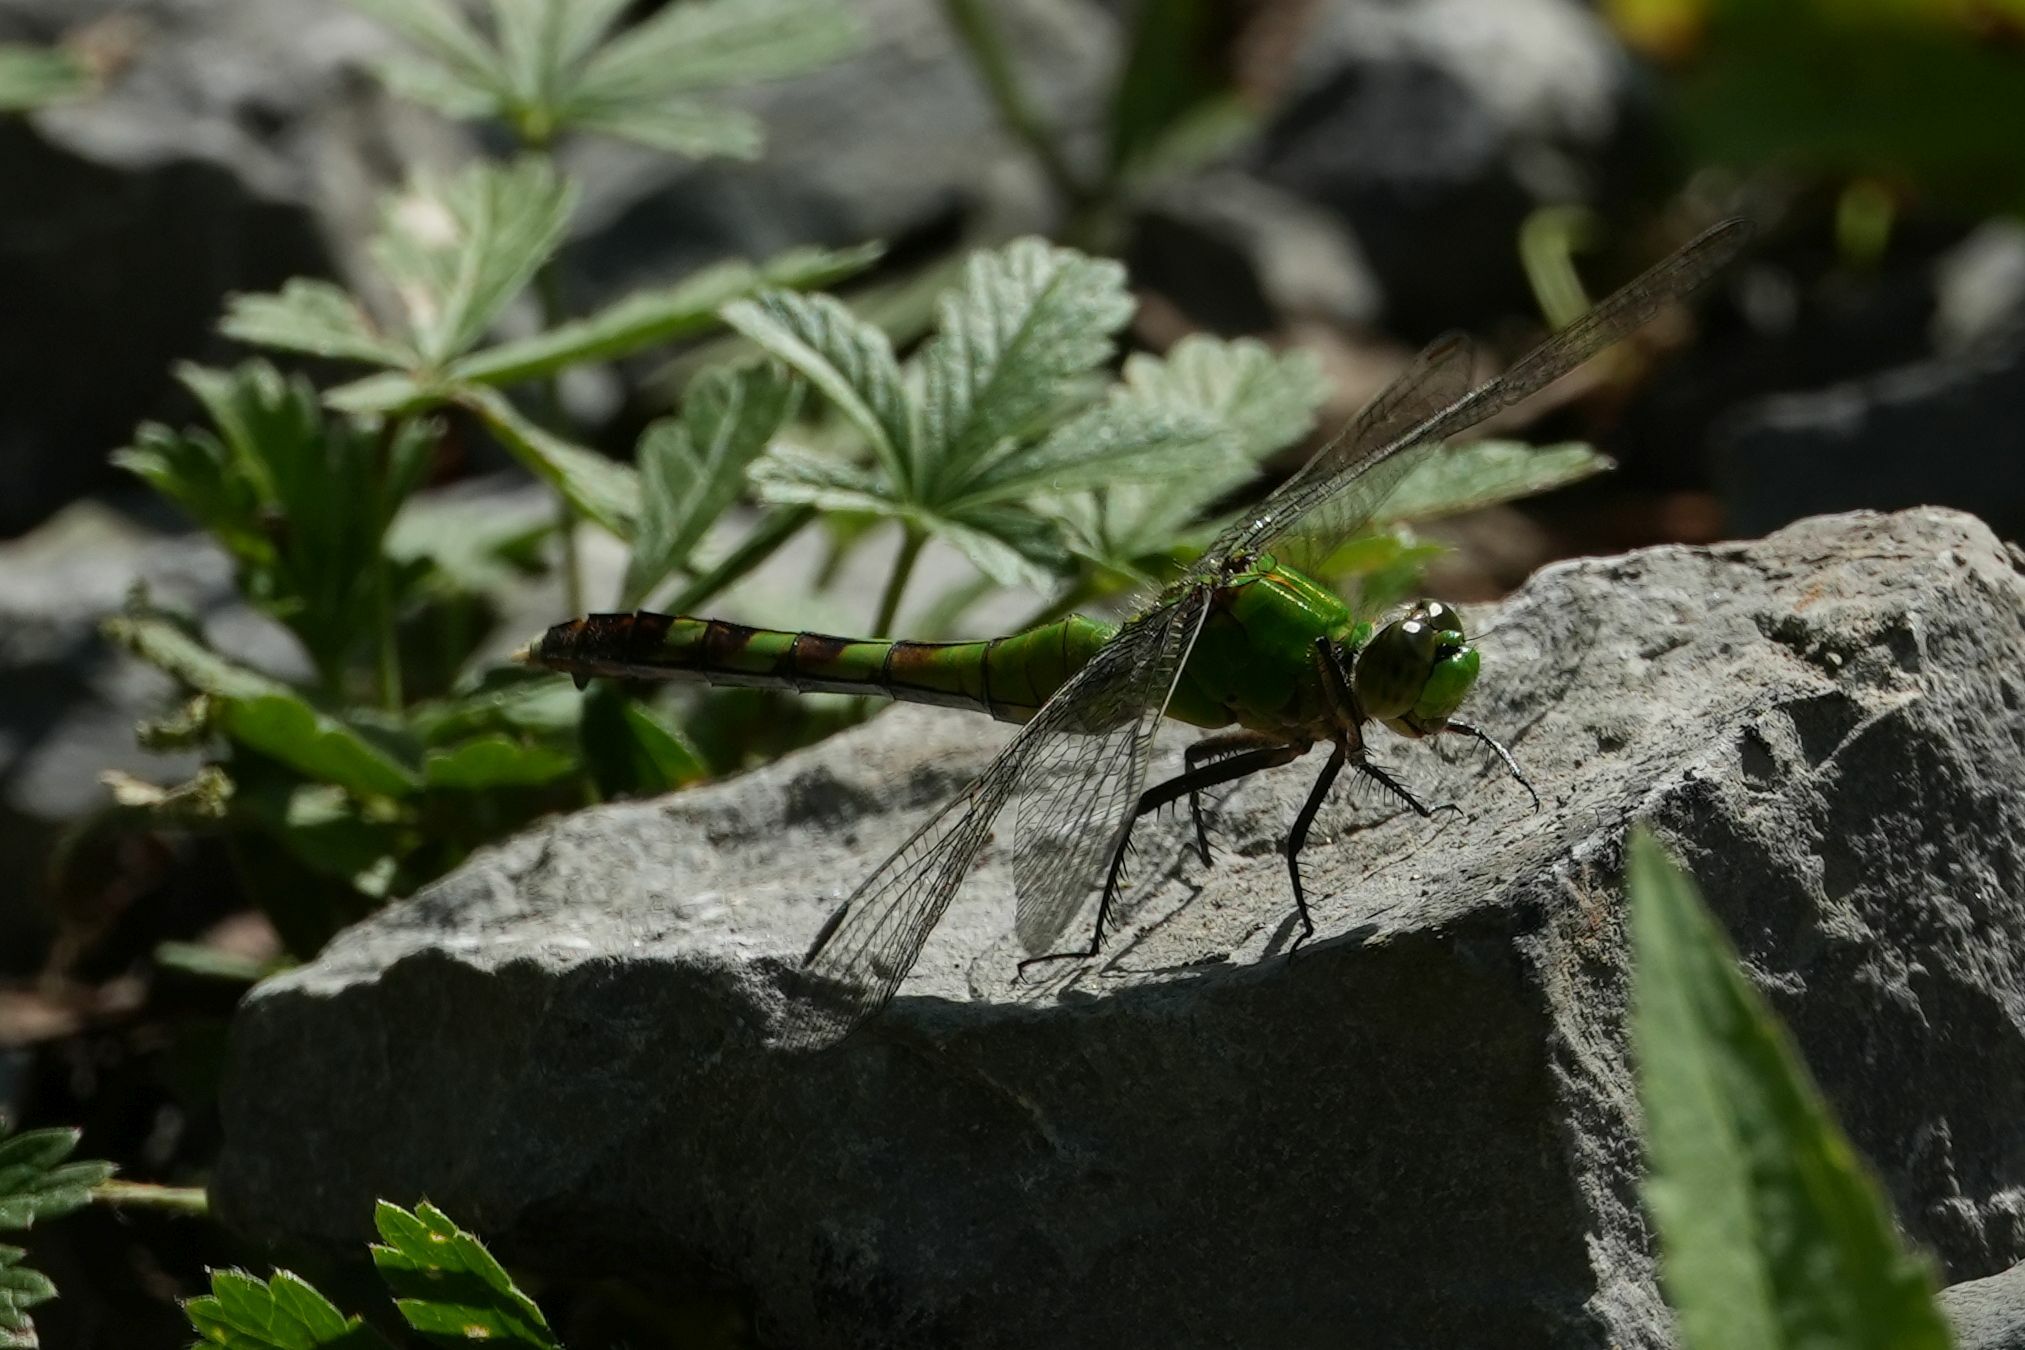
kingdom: Animalia
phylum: Arthropoda
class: Insecta
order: Odonata
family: Libellulidae
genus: Erythemis
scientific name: Erythemis simplicicollis
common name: Eastern pondhawk
